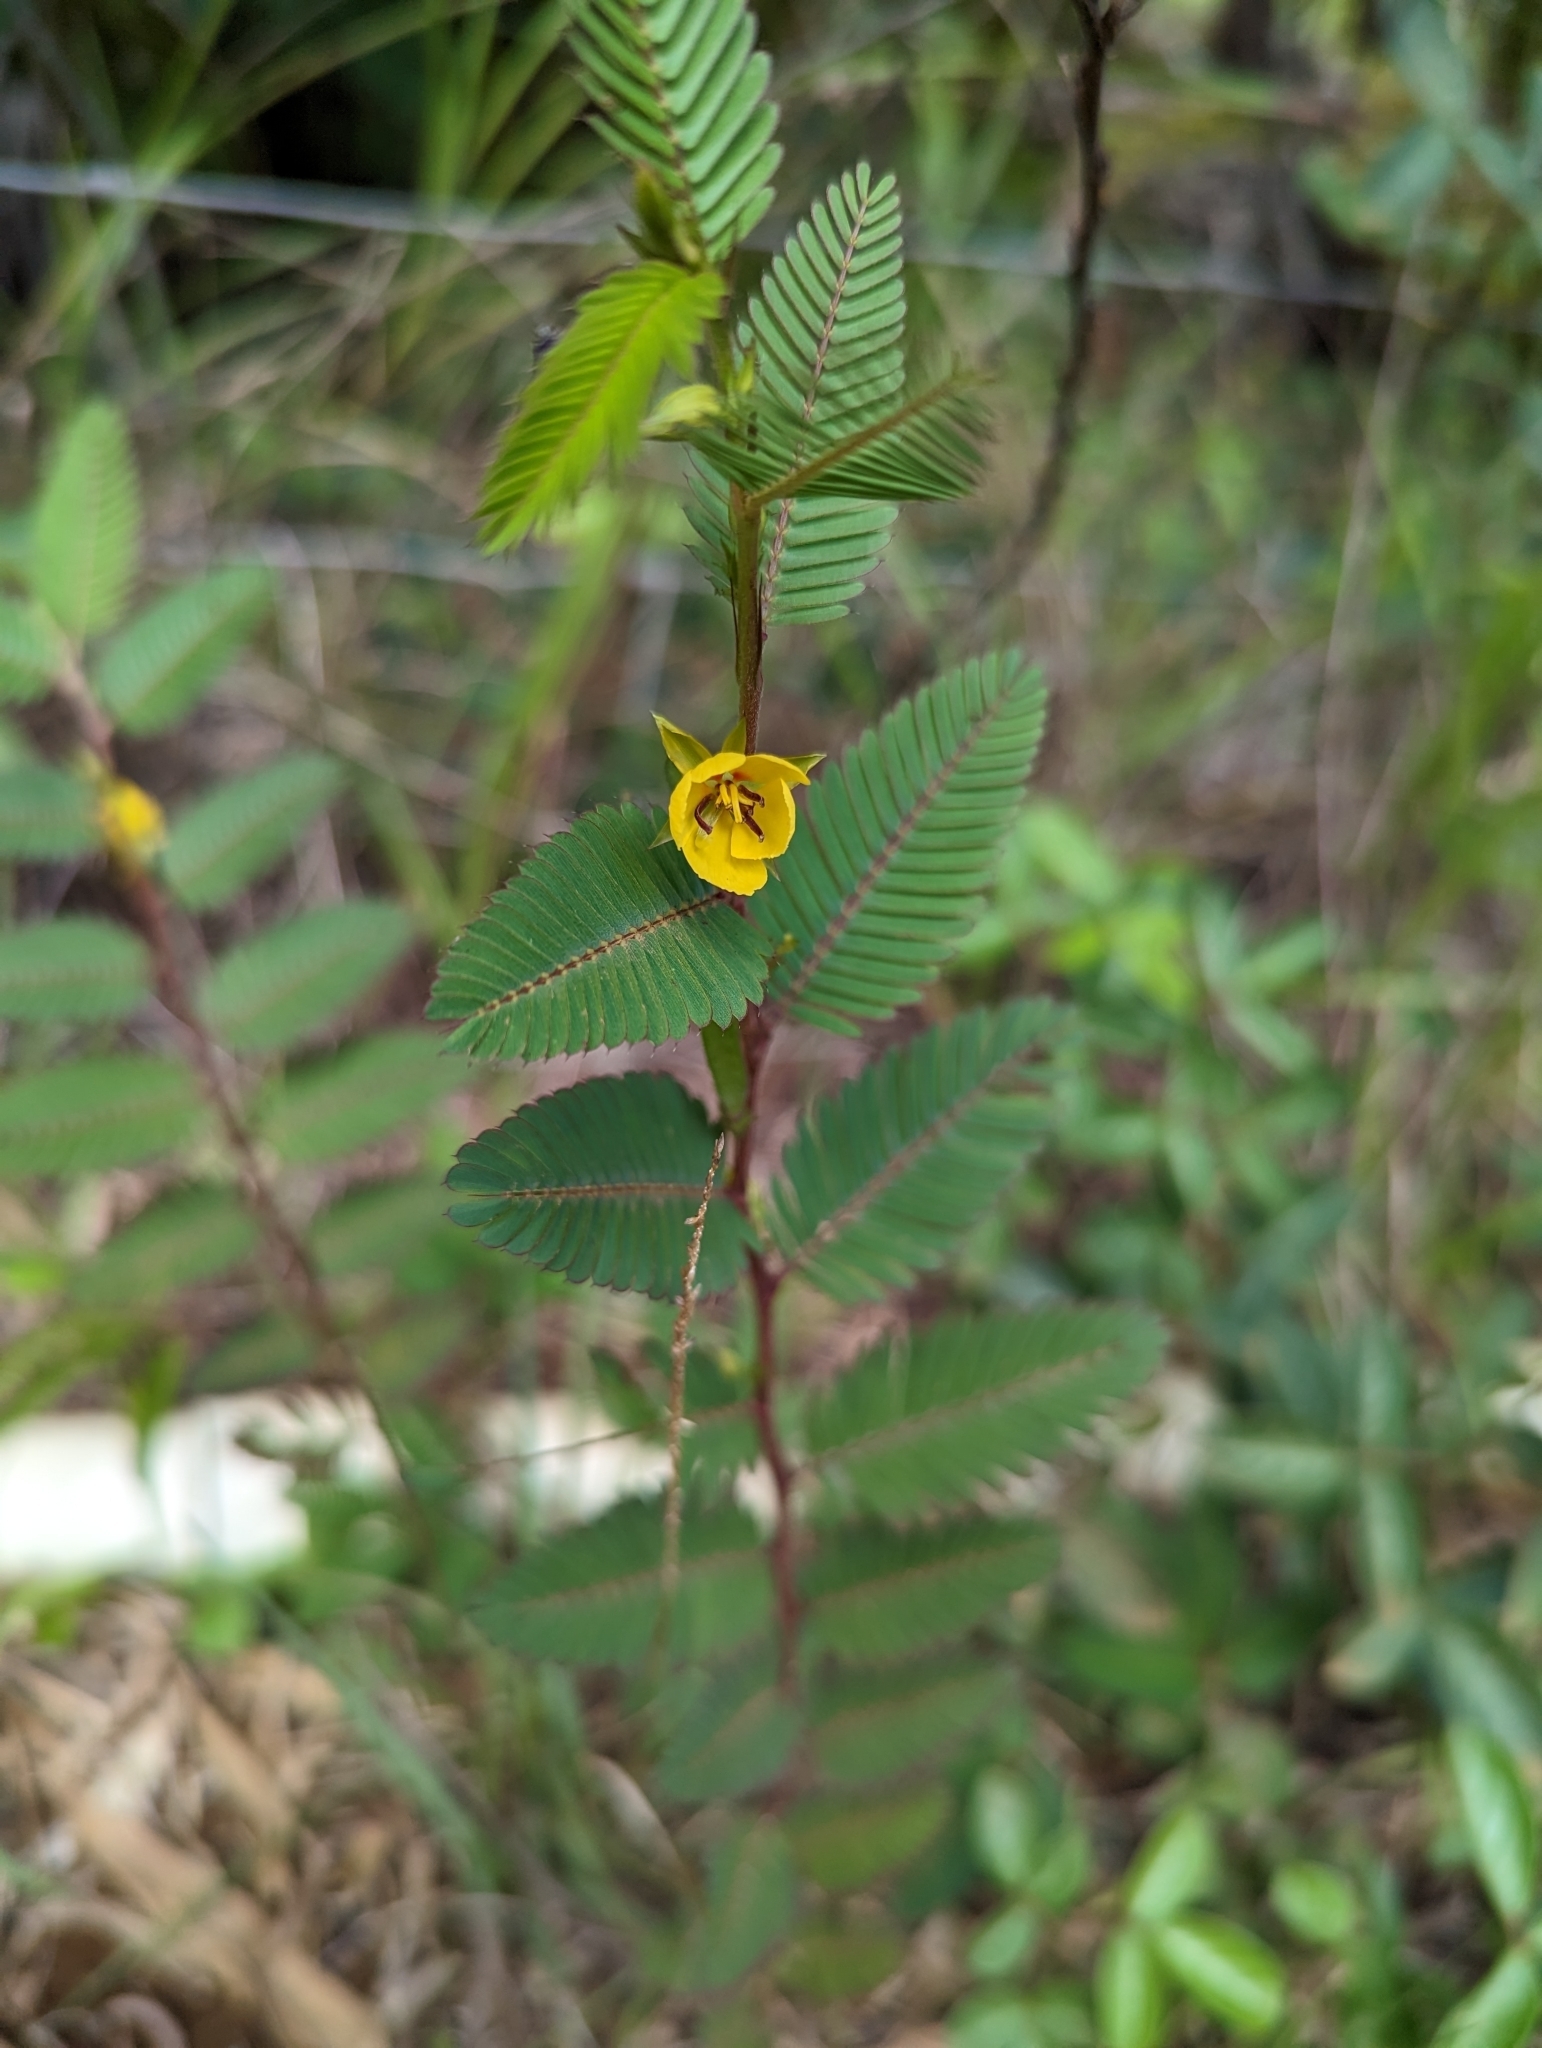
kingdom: Plantae
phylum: Tracheophyta
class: Magnoliopsida
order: Fabales
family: Fabaceae
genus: Chamaecrista
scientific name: Chamaecrista nictitans
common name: Sensitive cassia
